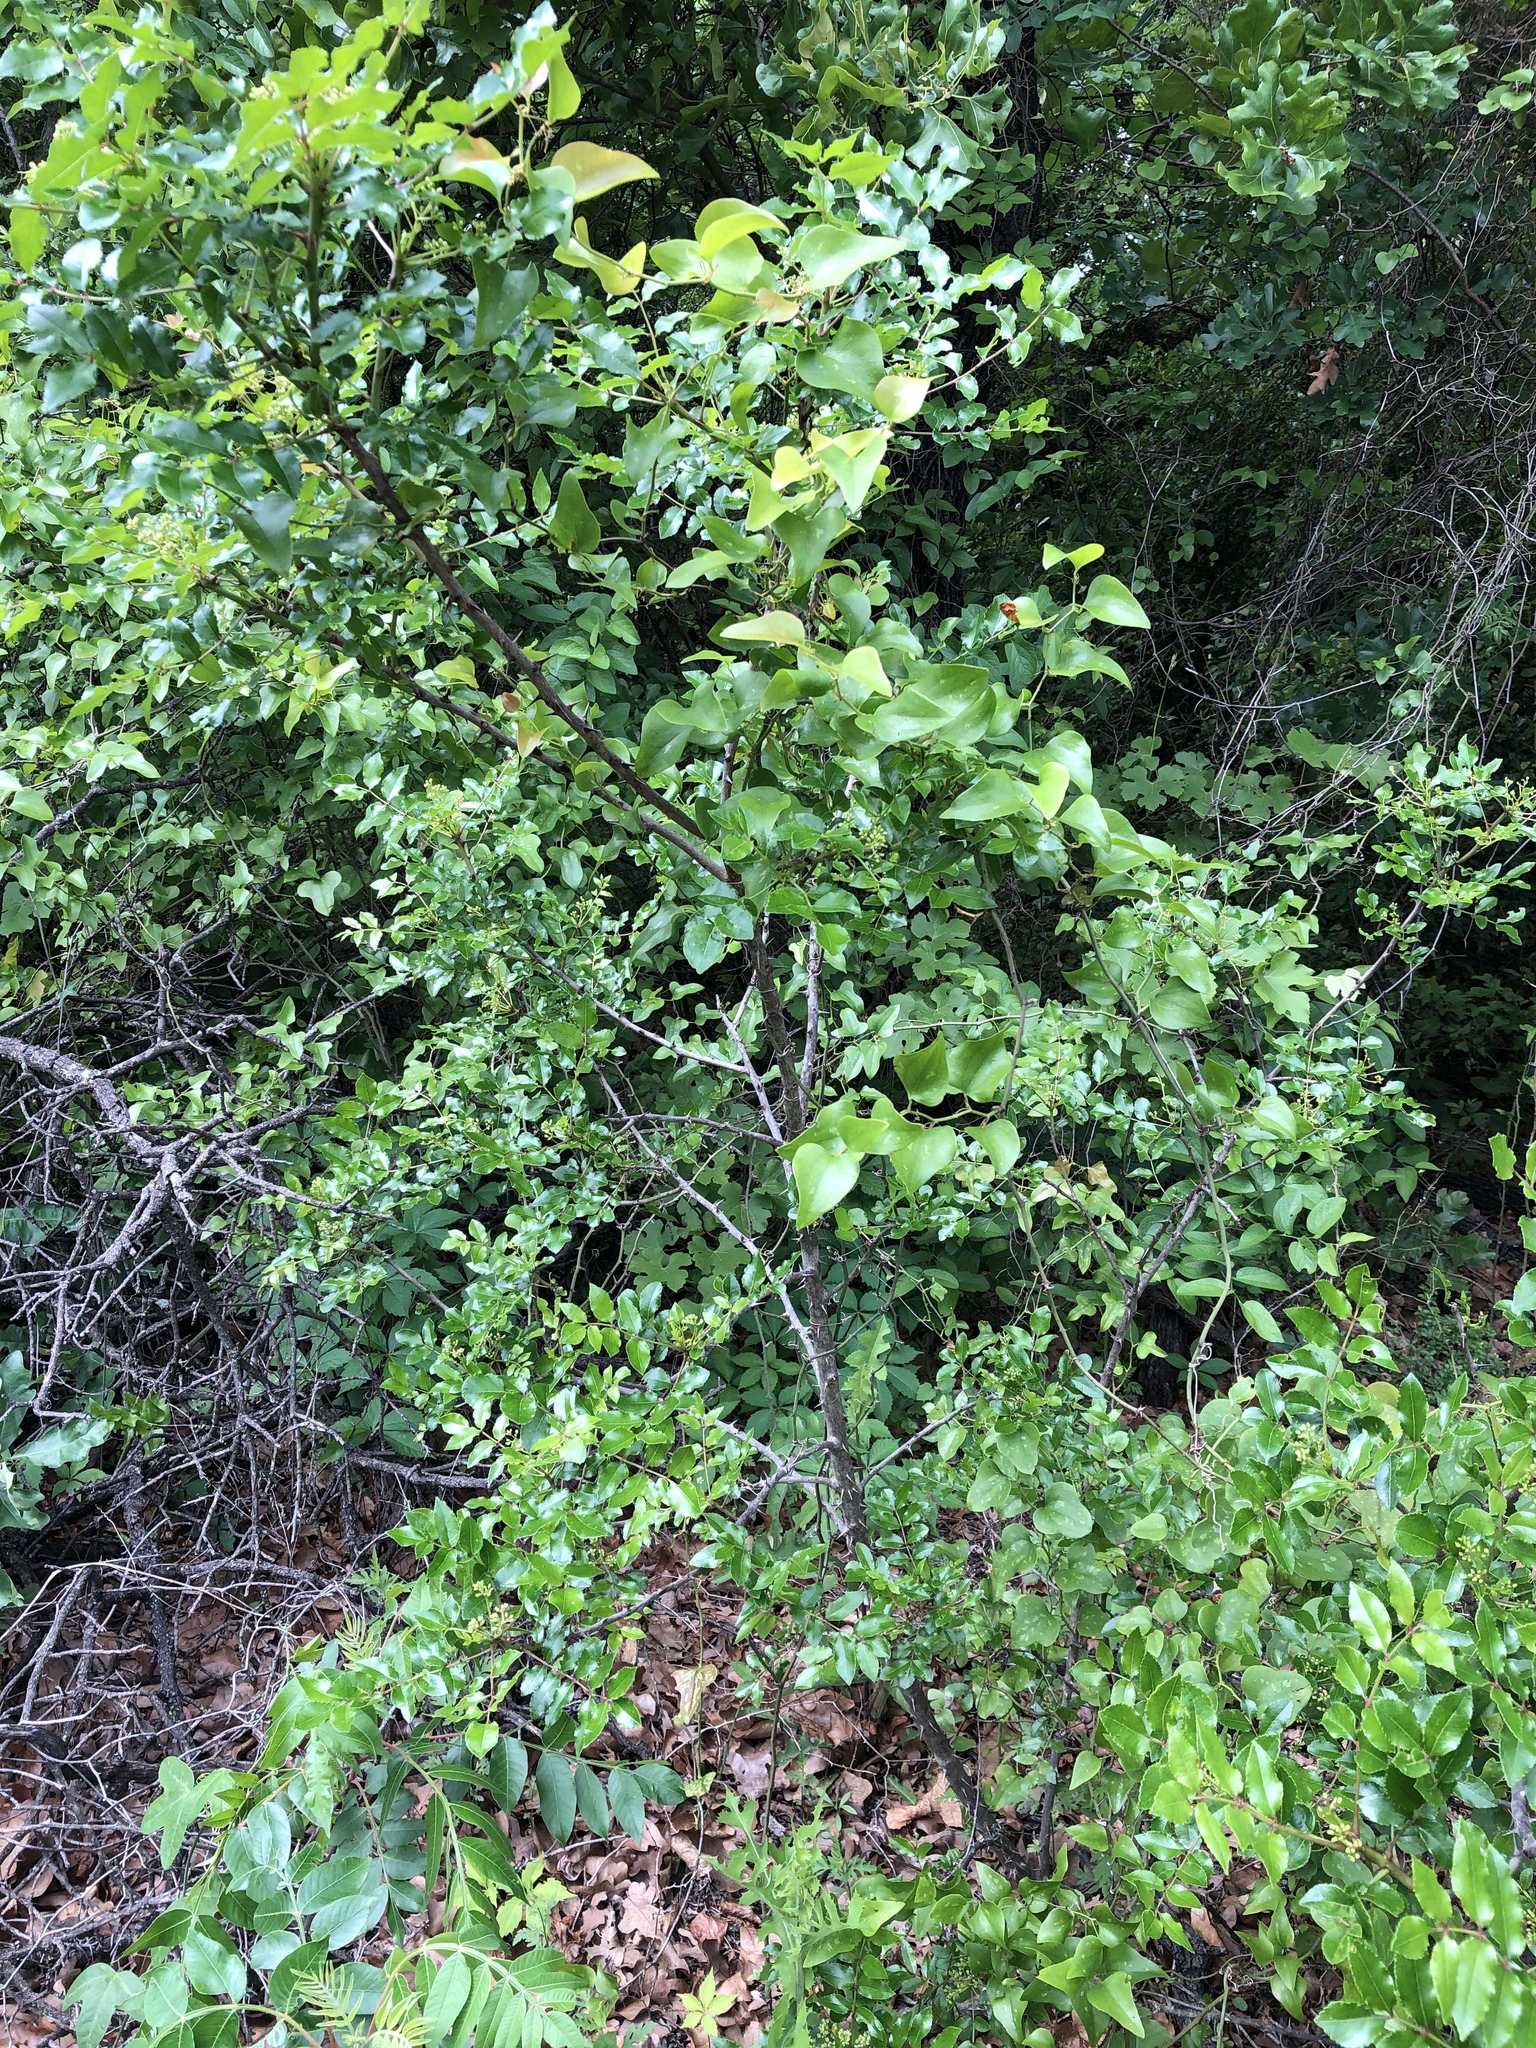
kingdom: Plantae
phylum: Tracheophyta
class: Magnoliopsida
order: Sapindales
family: Rutaceae
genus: Zanthoxylum
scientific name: Zanthoxylum clava-herculis
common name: Hercules'-club
